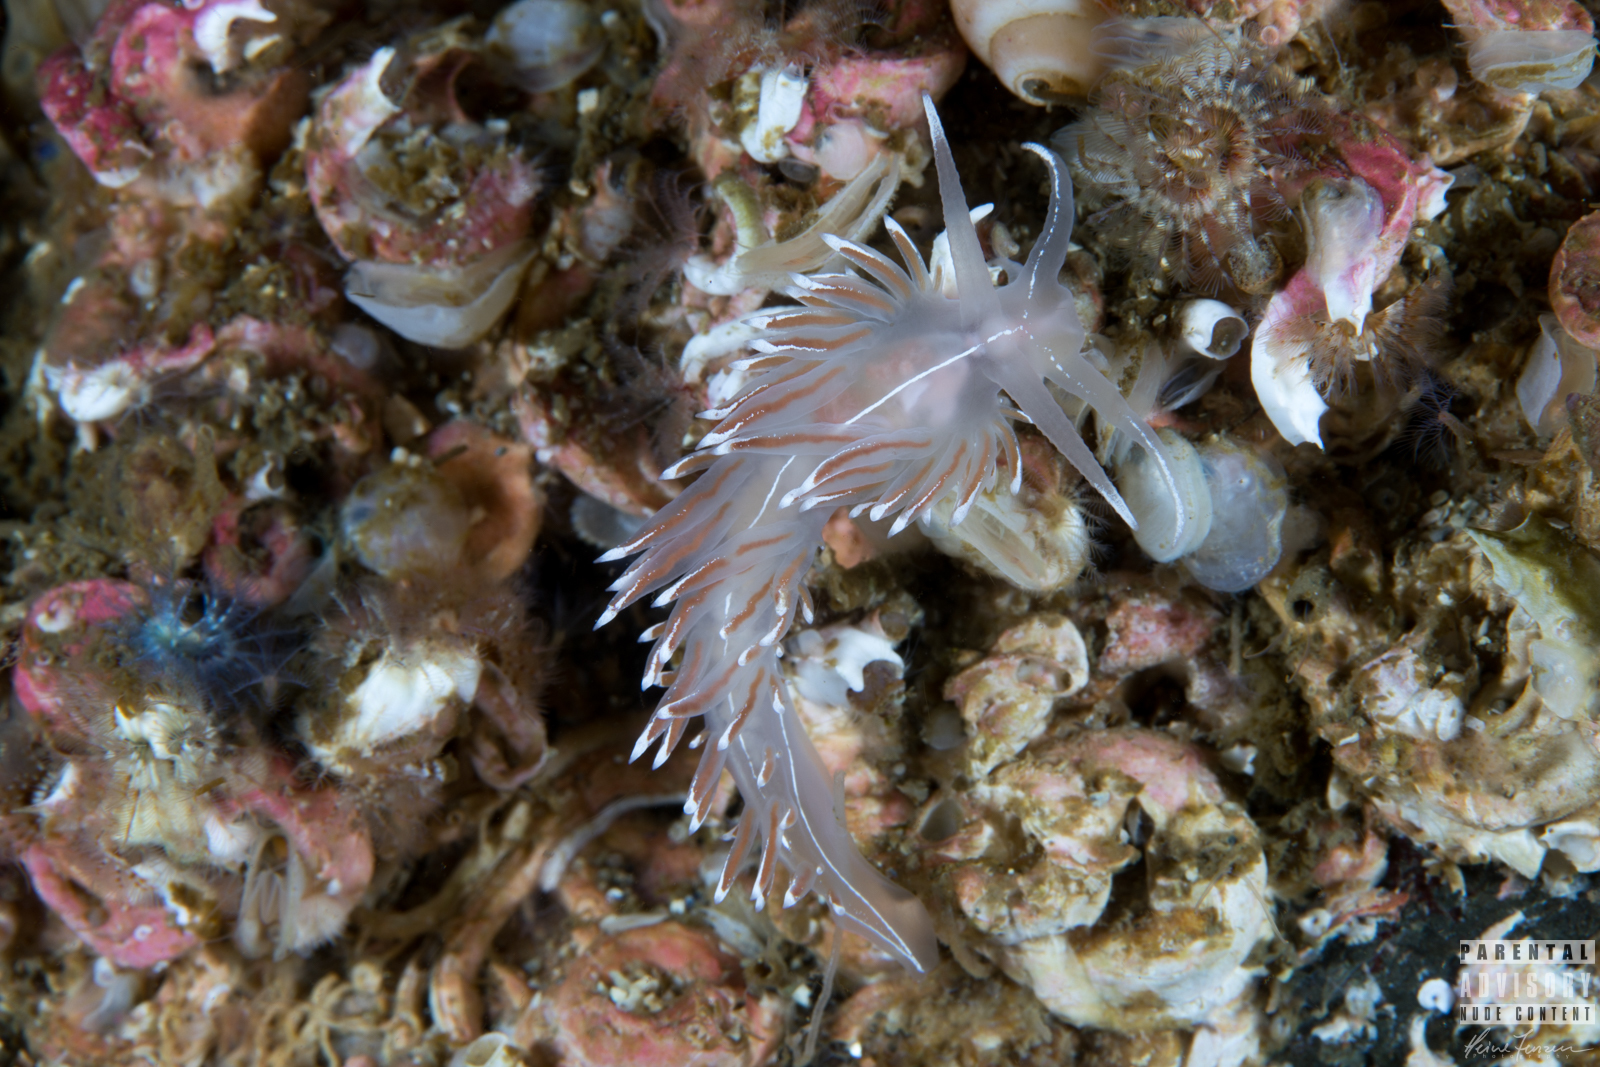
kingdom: Animalia
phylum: Mollusca
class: Gastropoda
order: Nudibranchia
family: Coryphellidae
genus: Coryphella
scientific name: Coryphella lineata
